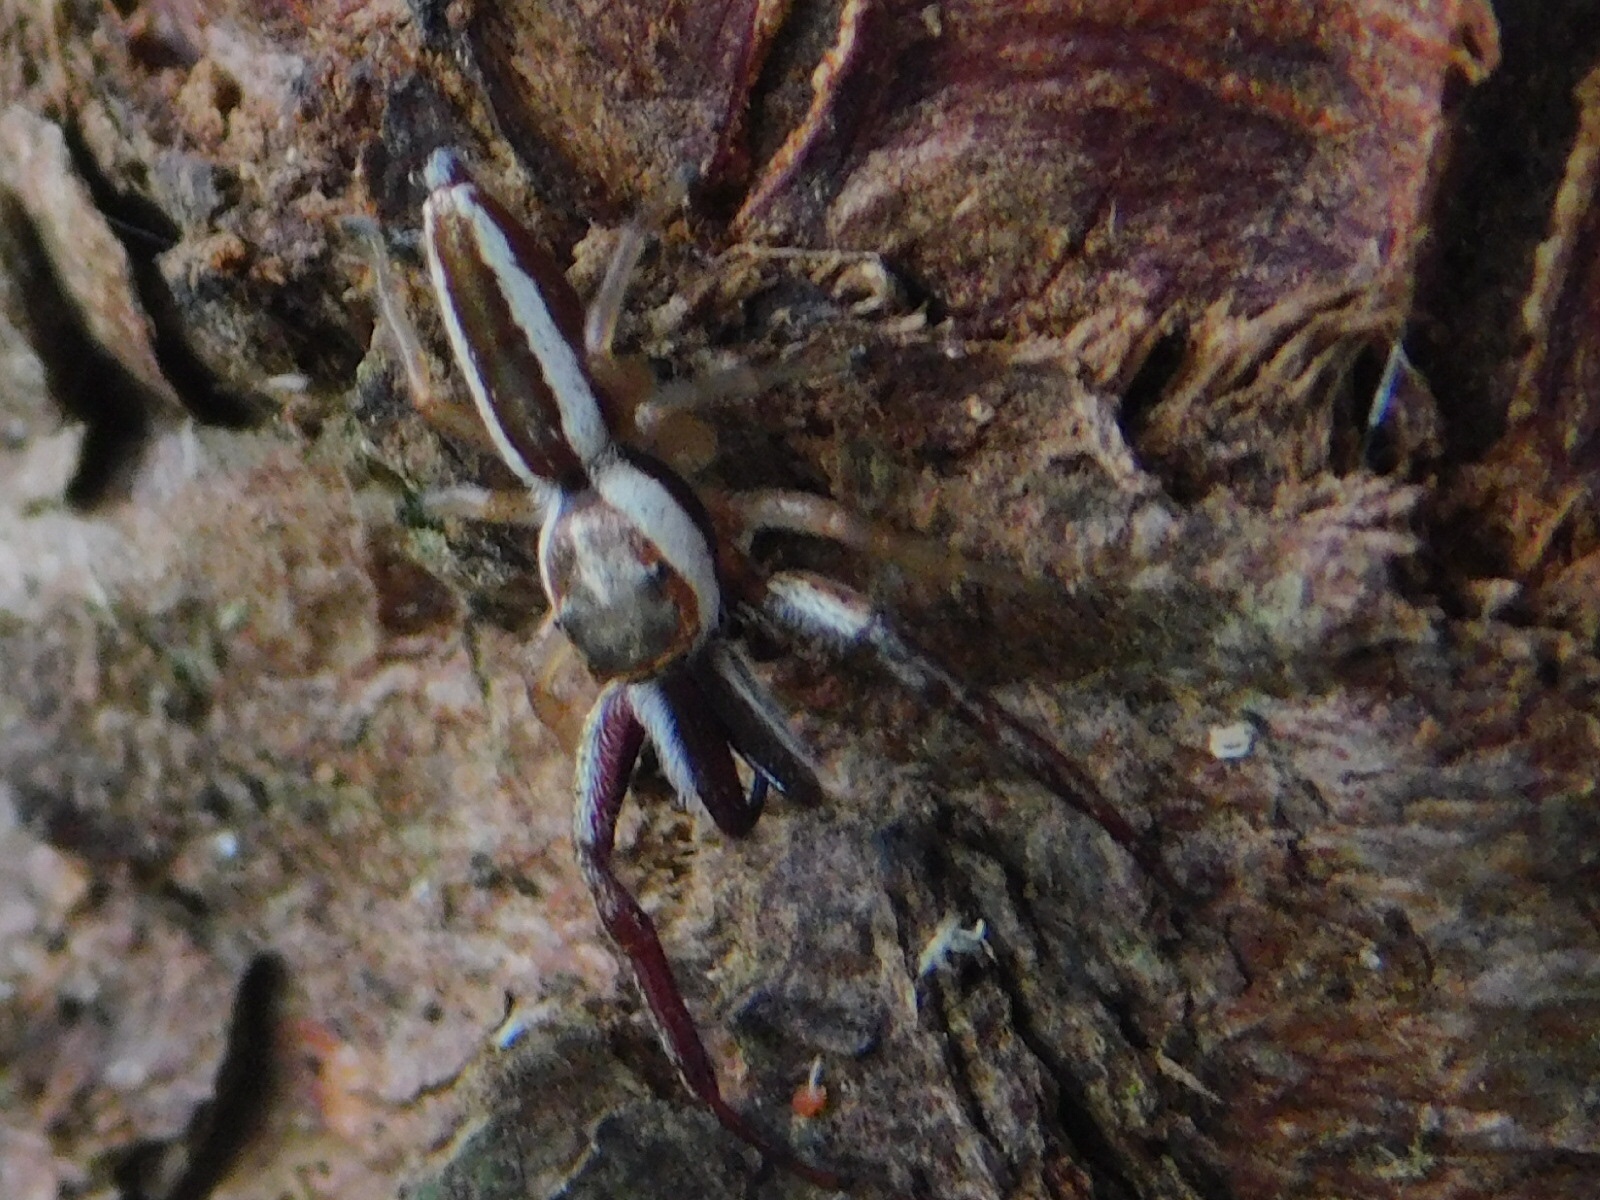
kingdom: Animalia
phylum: Arthropoda
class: Arachnida
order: Araneae
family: Salticidae
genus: Hentzia
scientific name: Hentzia palmarum
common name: Common hentz jumping spider
